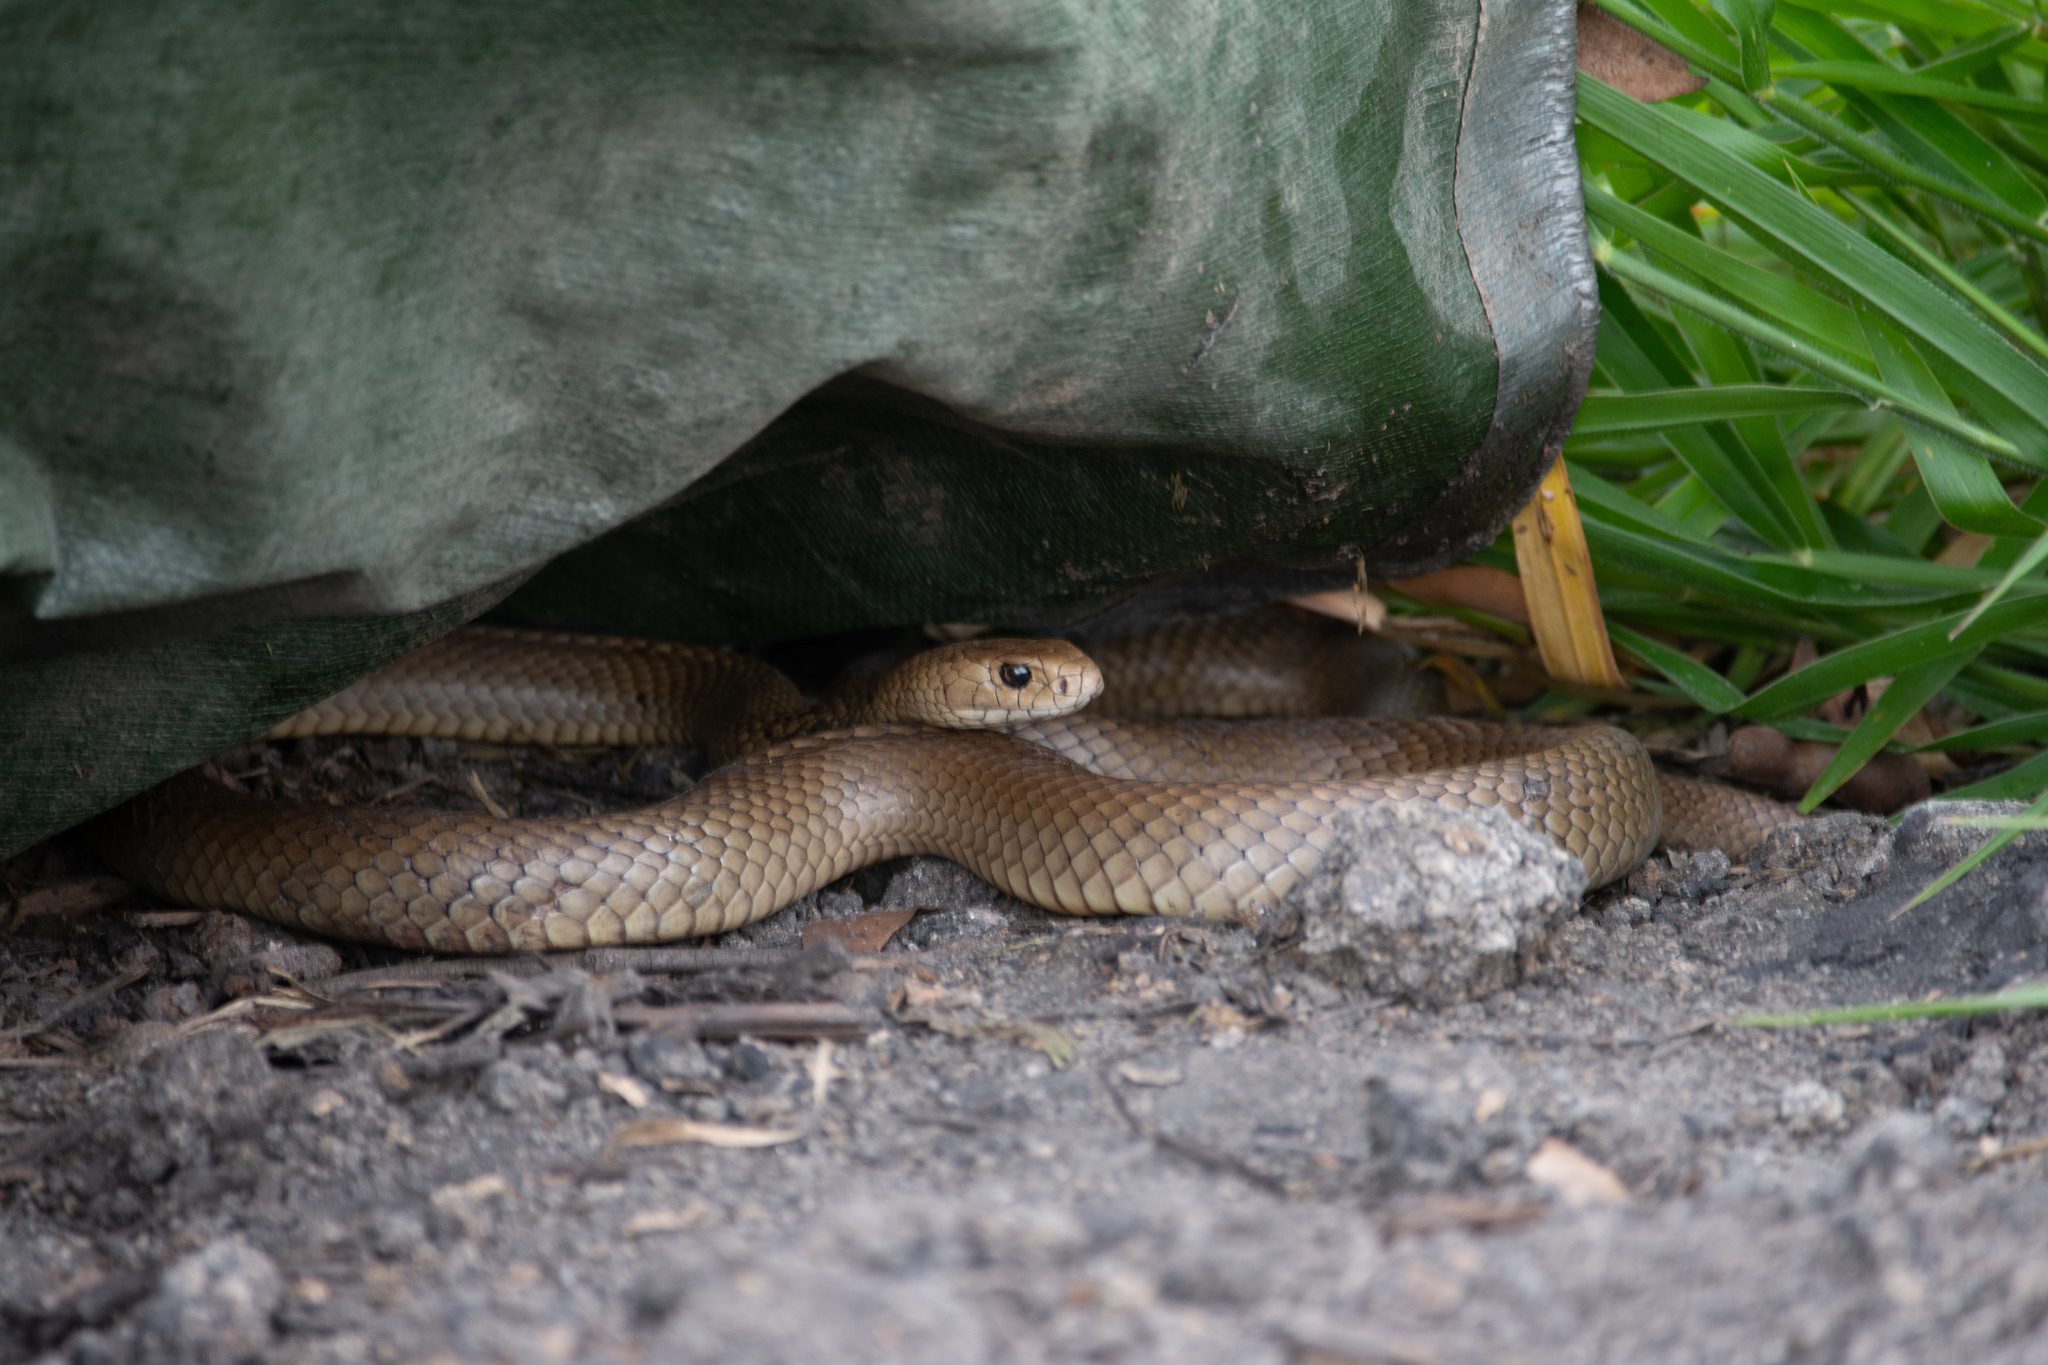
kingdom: Animalia
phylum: Chordata
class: Squamata
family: Elapidae
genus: Pseudonaja
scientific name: Pseudonaja textilis
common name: Eastern brown snake
